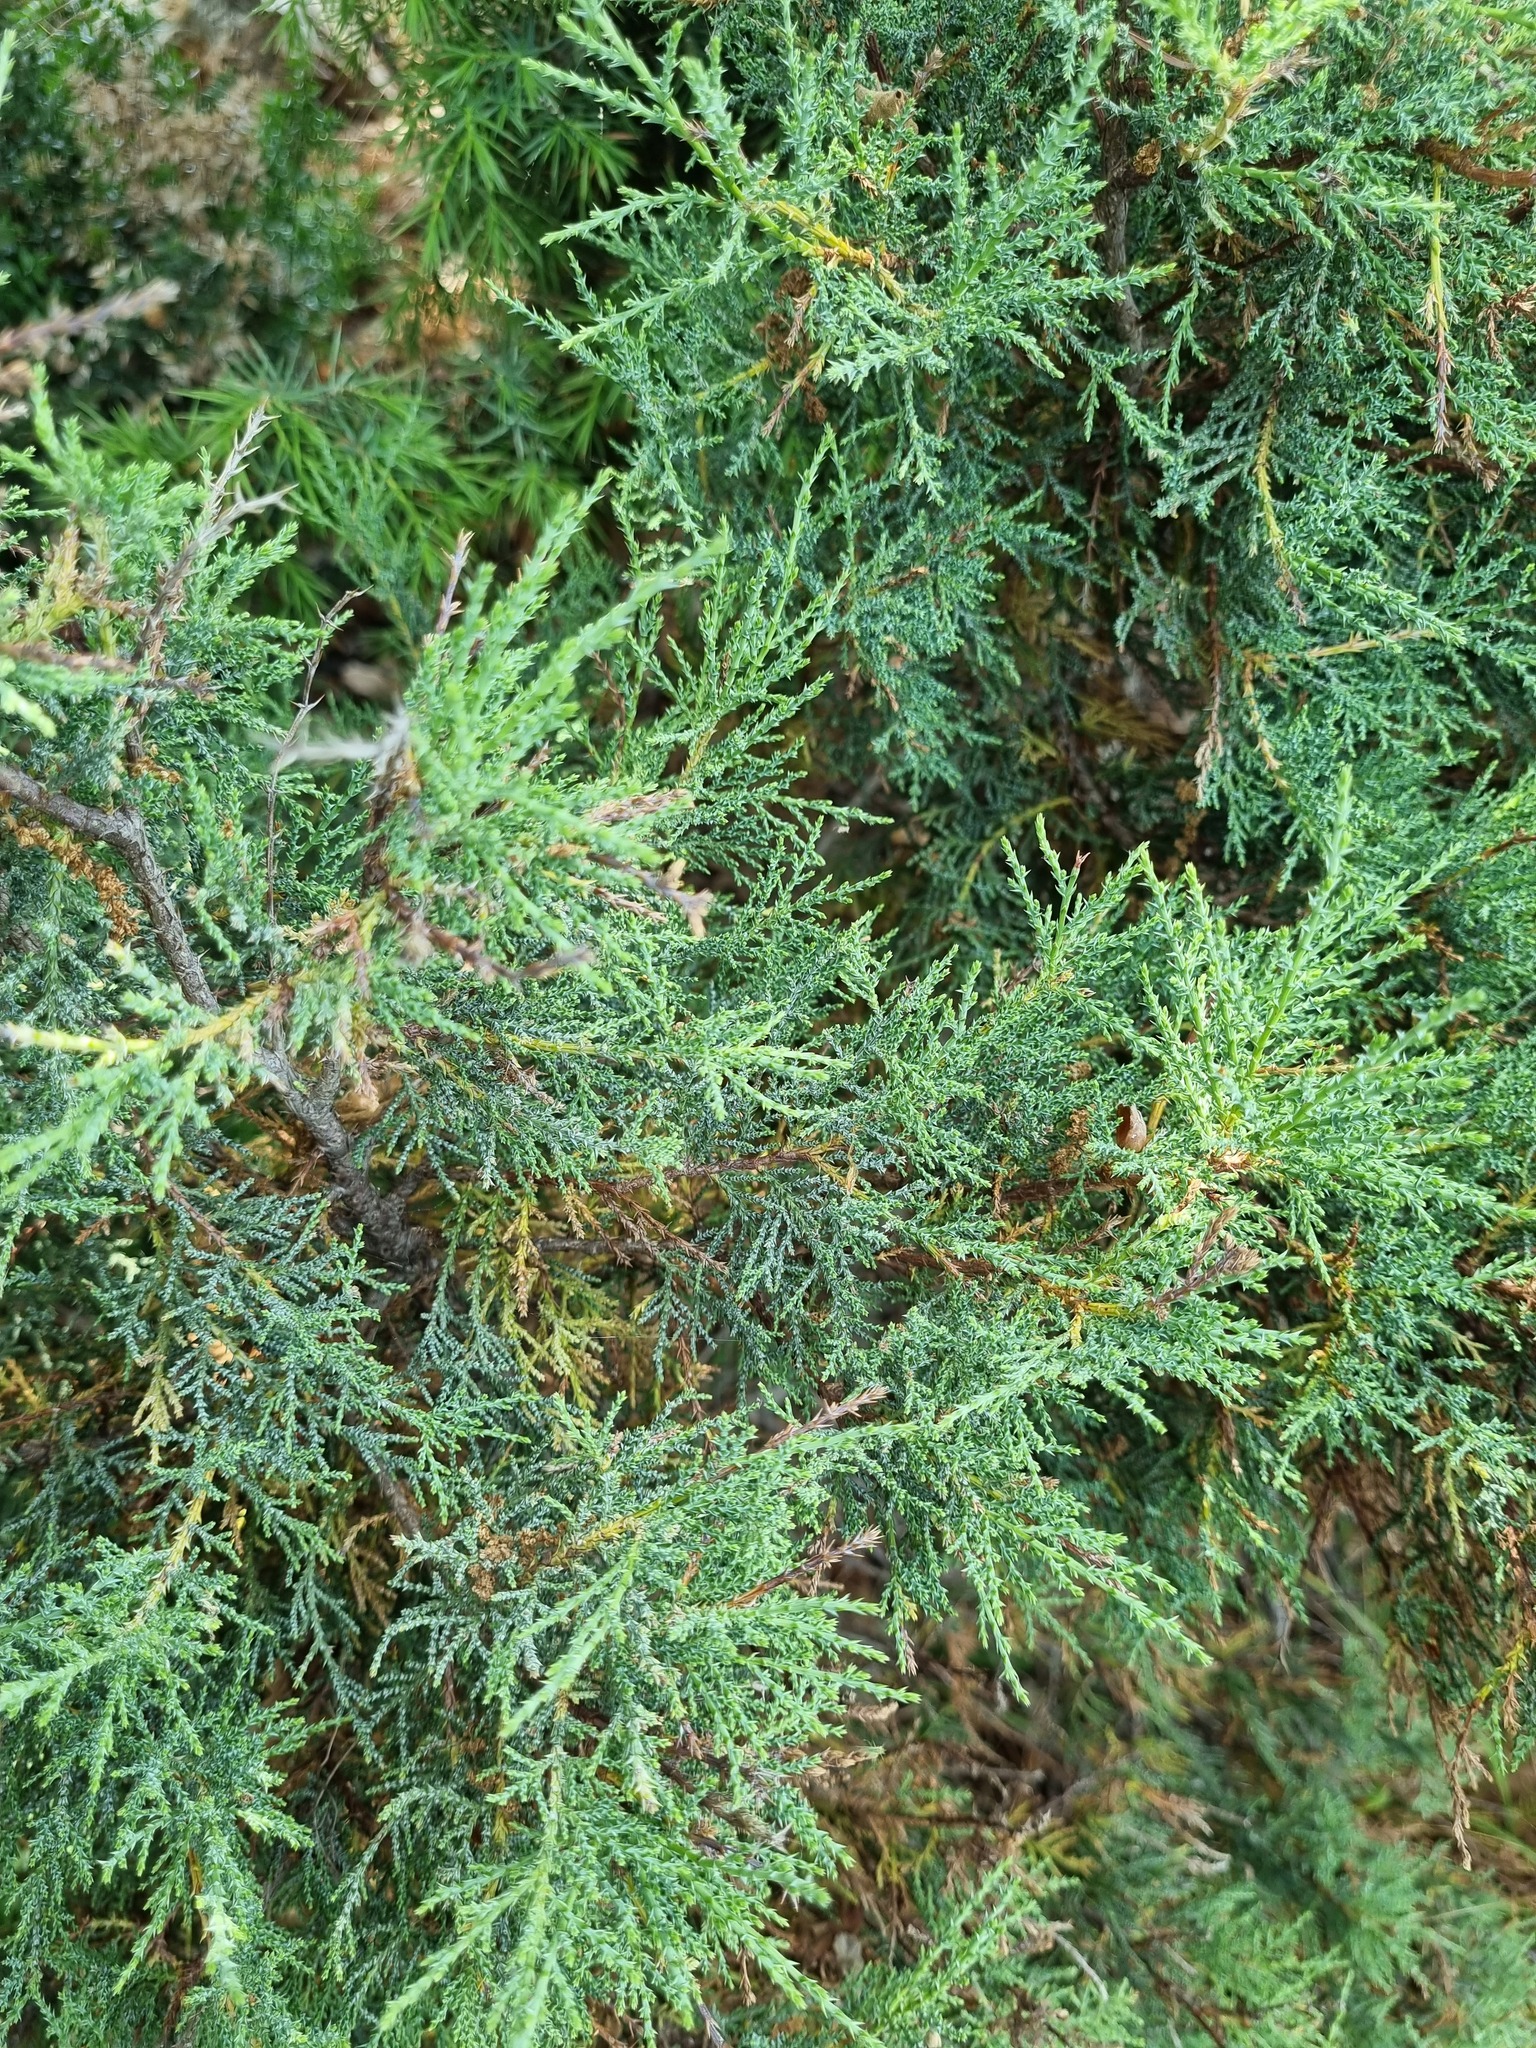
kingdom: Plantae
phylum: Tracheophyta
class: Pinopsida
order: Pinales
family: Cupressaceae
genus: Juniperus
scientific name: Juniperus foetidissima
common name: Stinking juniper
